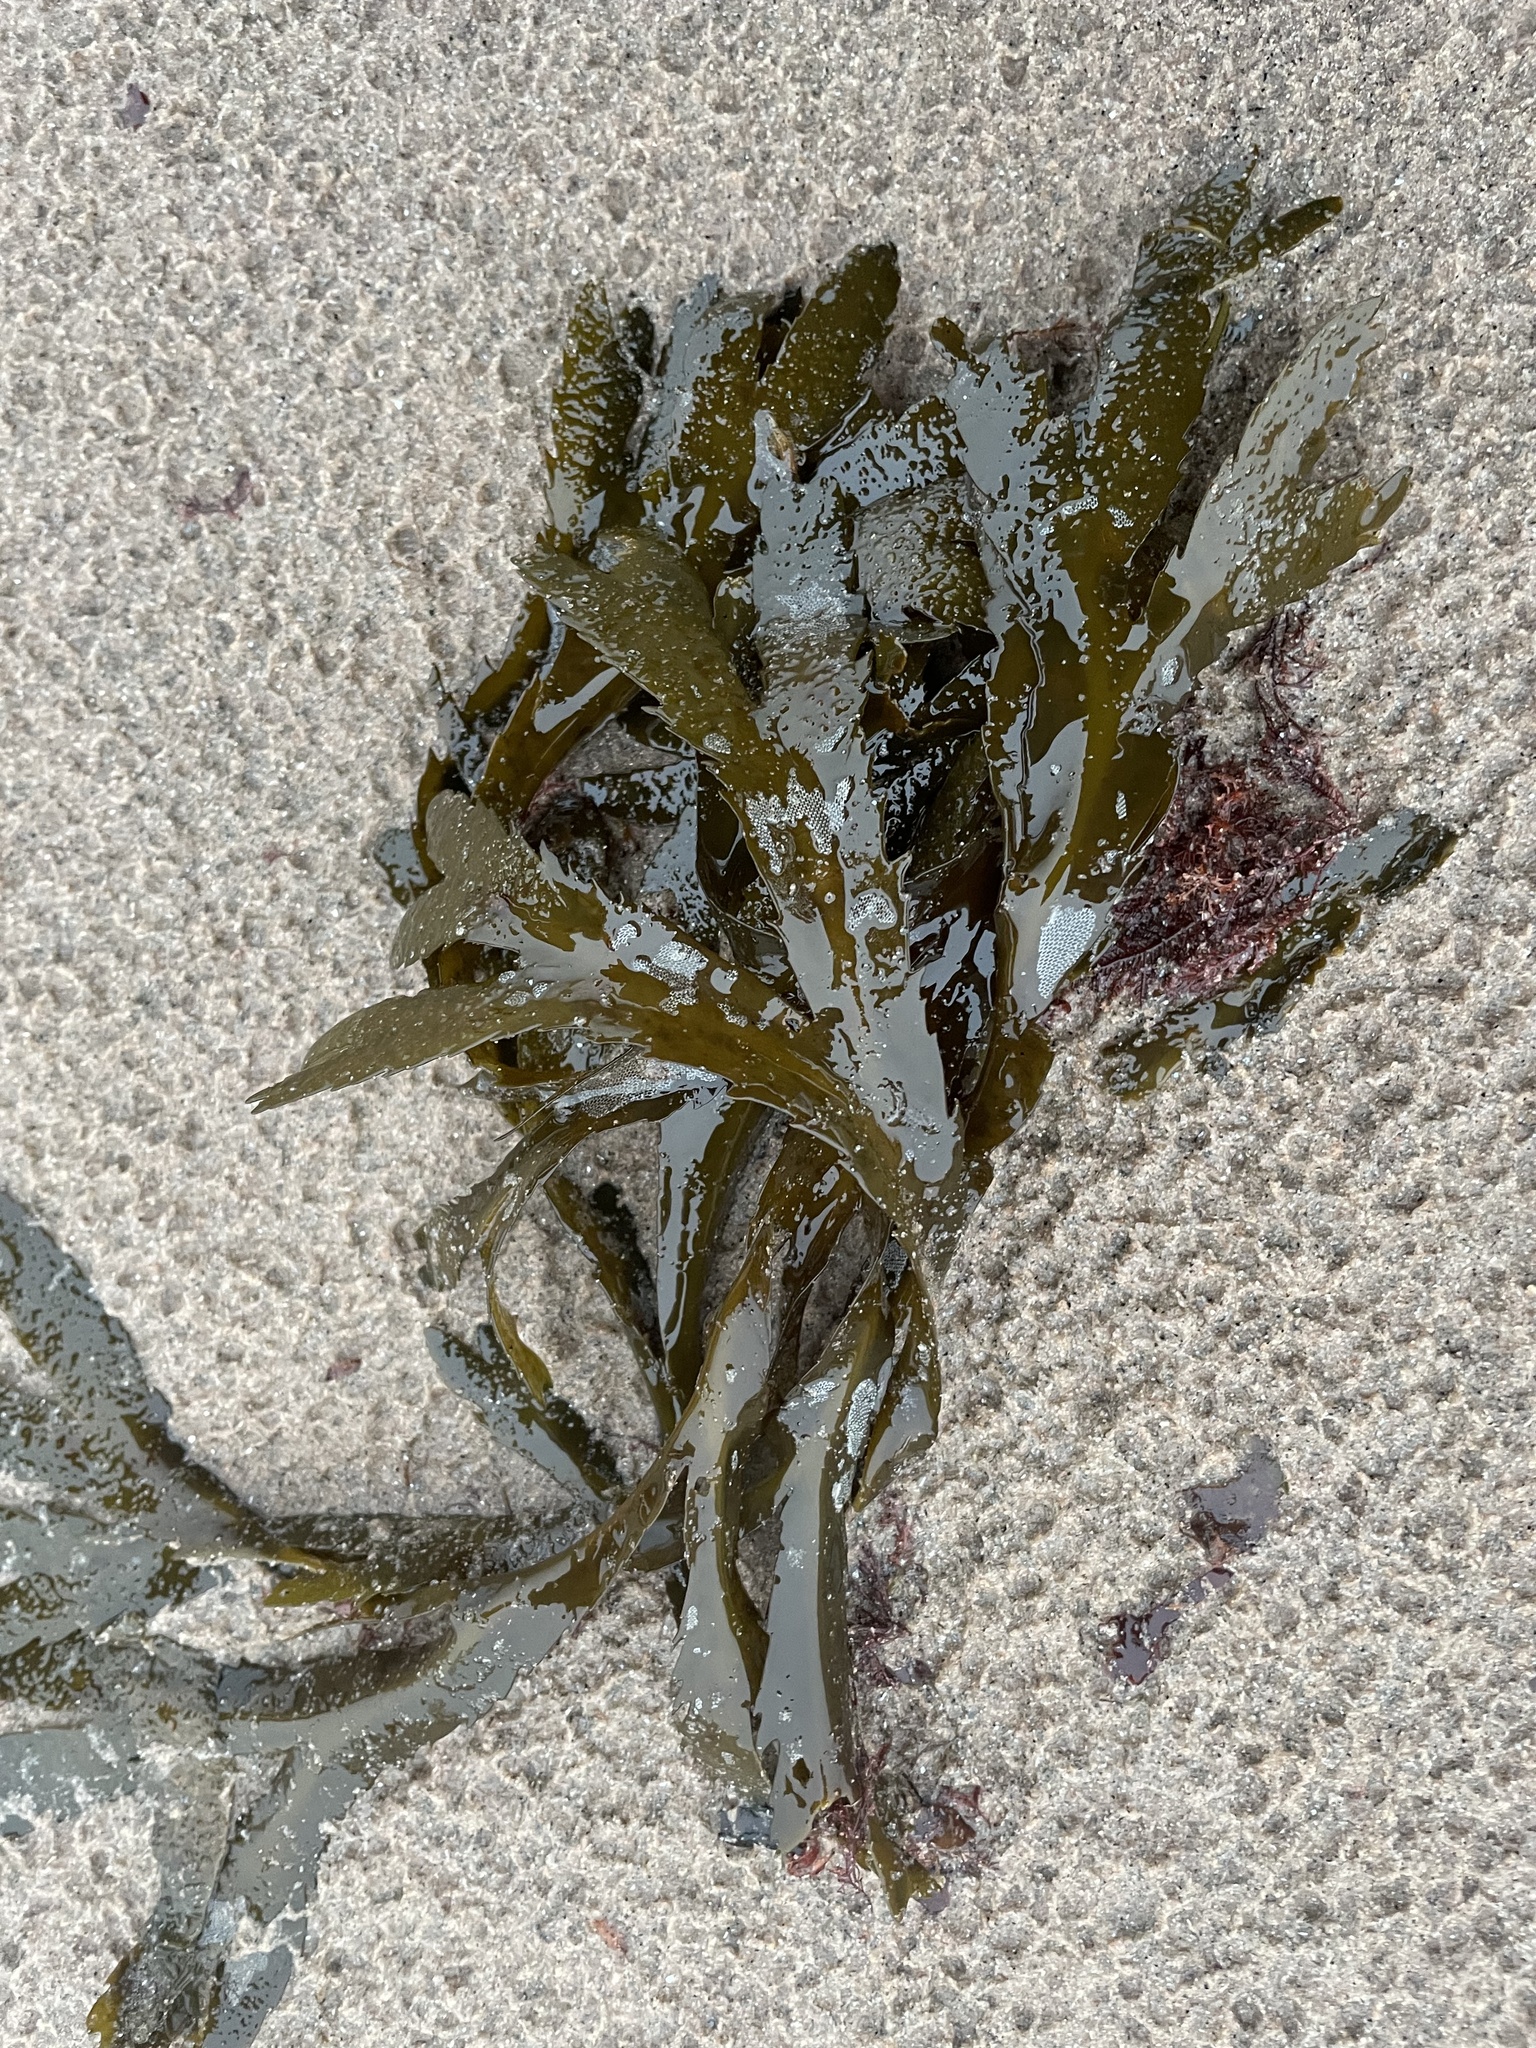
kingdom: Chromista
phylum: Ochrophyta
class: Phaeophyceae
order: Fucales
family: Fucaceae
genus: Fucus
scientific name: Fucus serratus
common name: Toothed wrack
